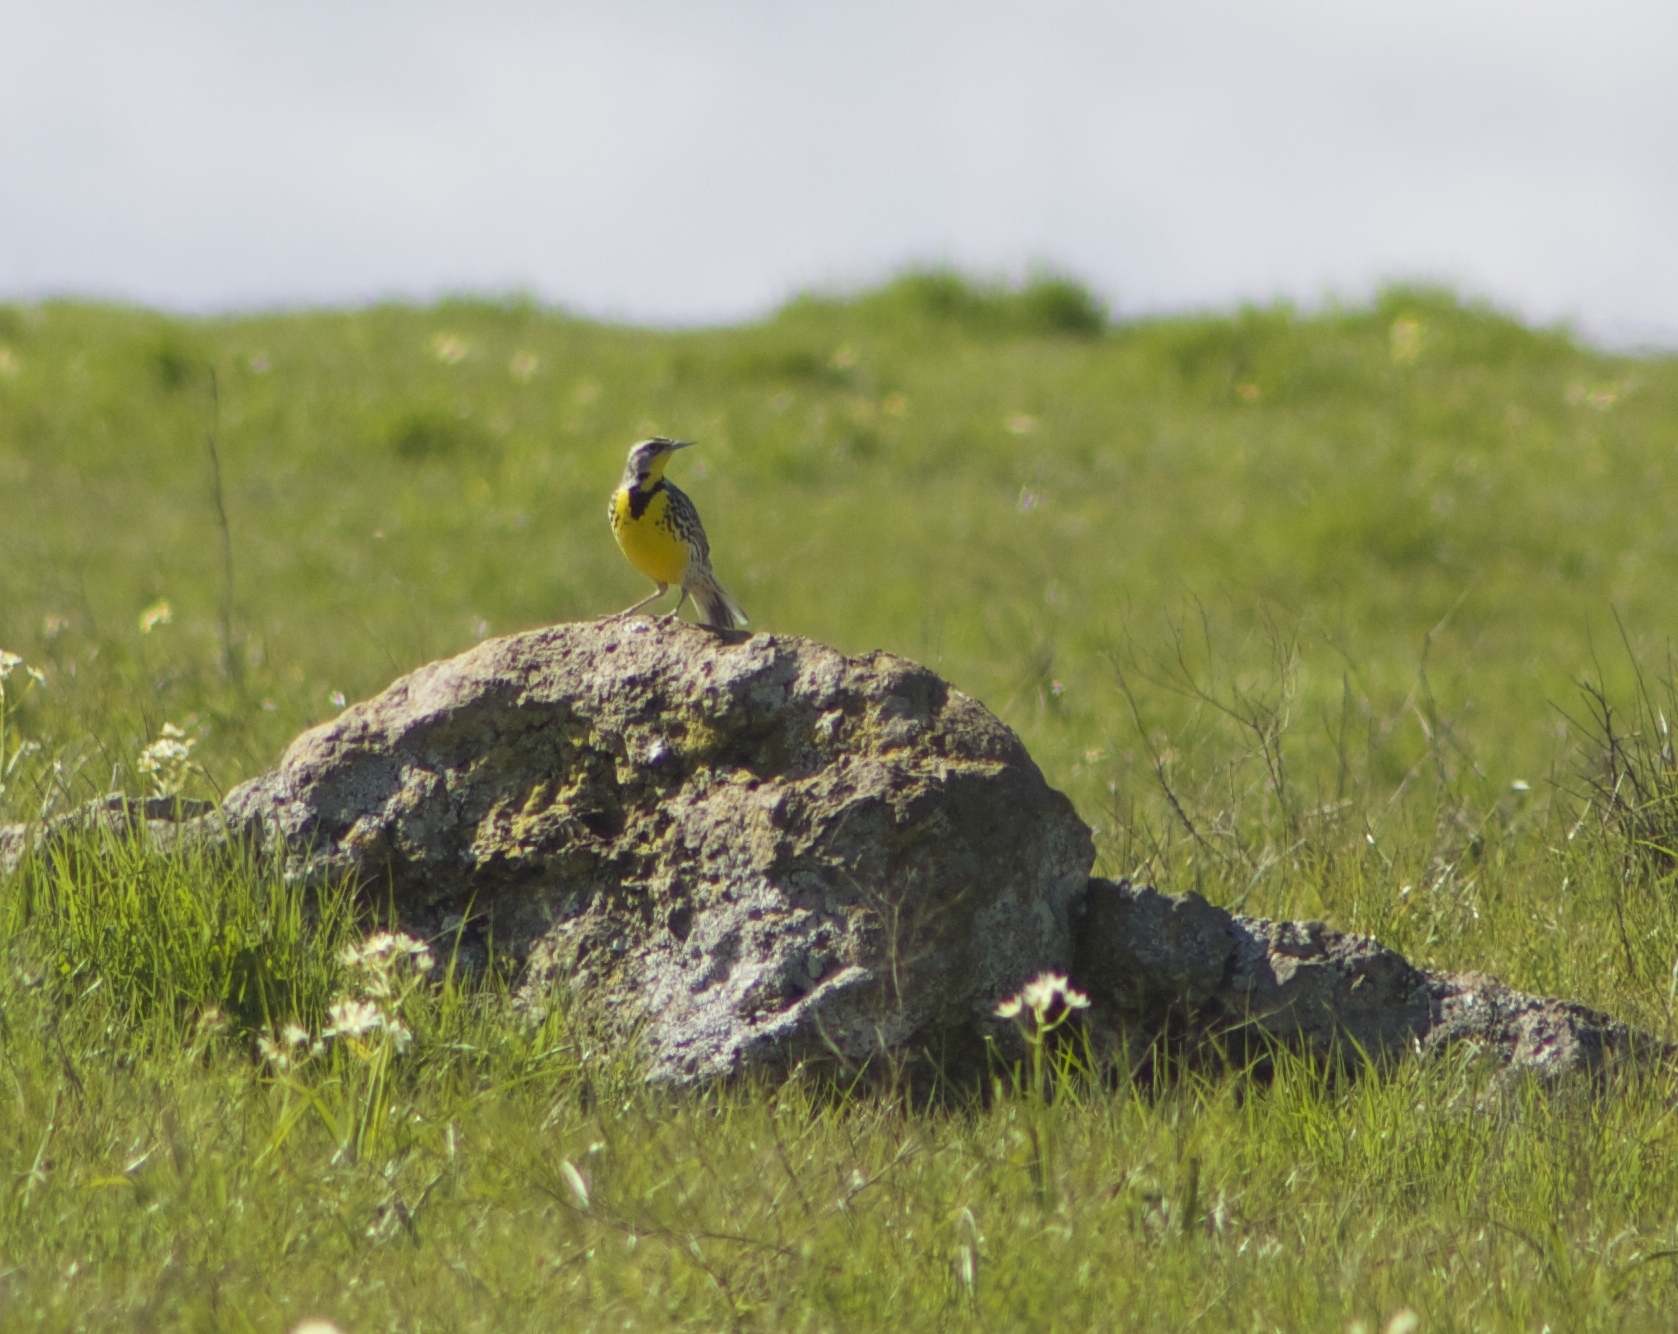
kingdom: Animalia
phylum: Chordata
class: Aves
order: Passeriformes
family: Icteridae
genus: Sturnella
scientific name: Sturnella neglecta
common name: Western meadowlark
